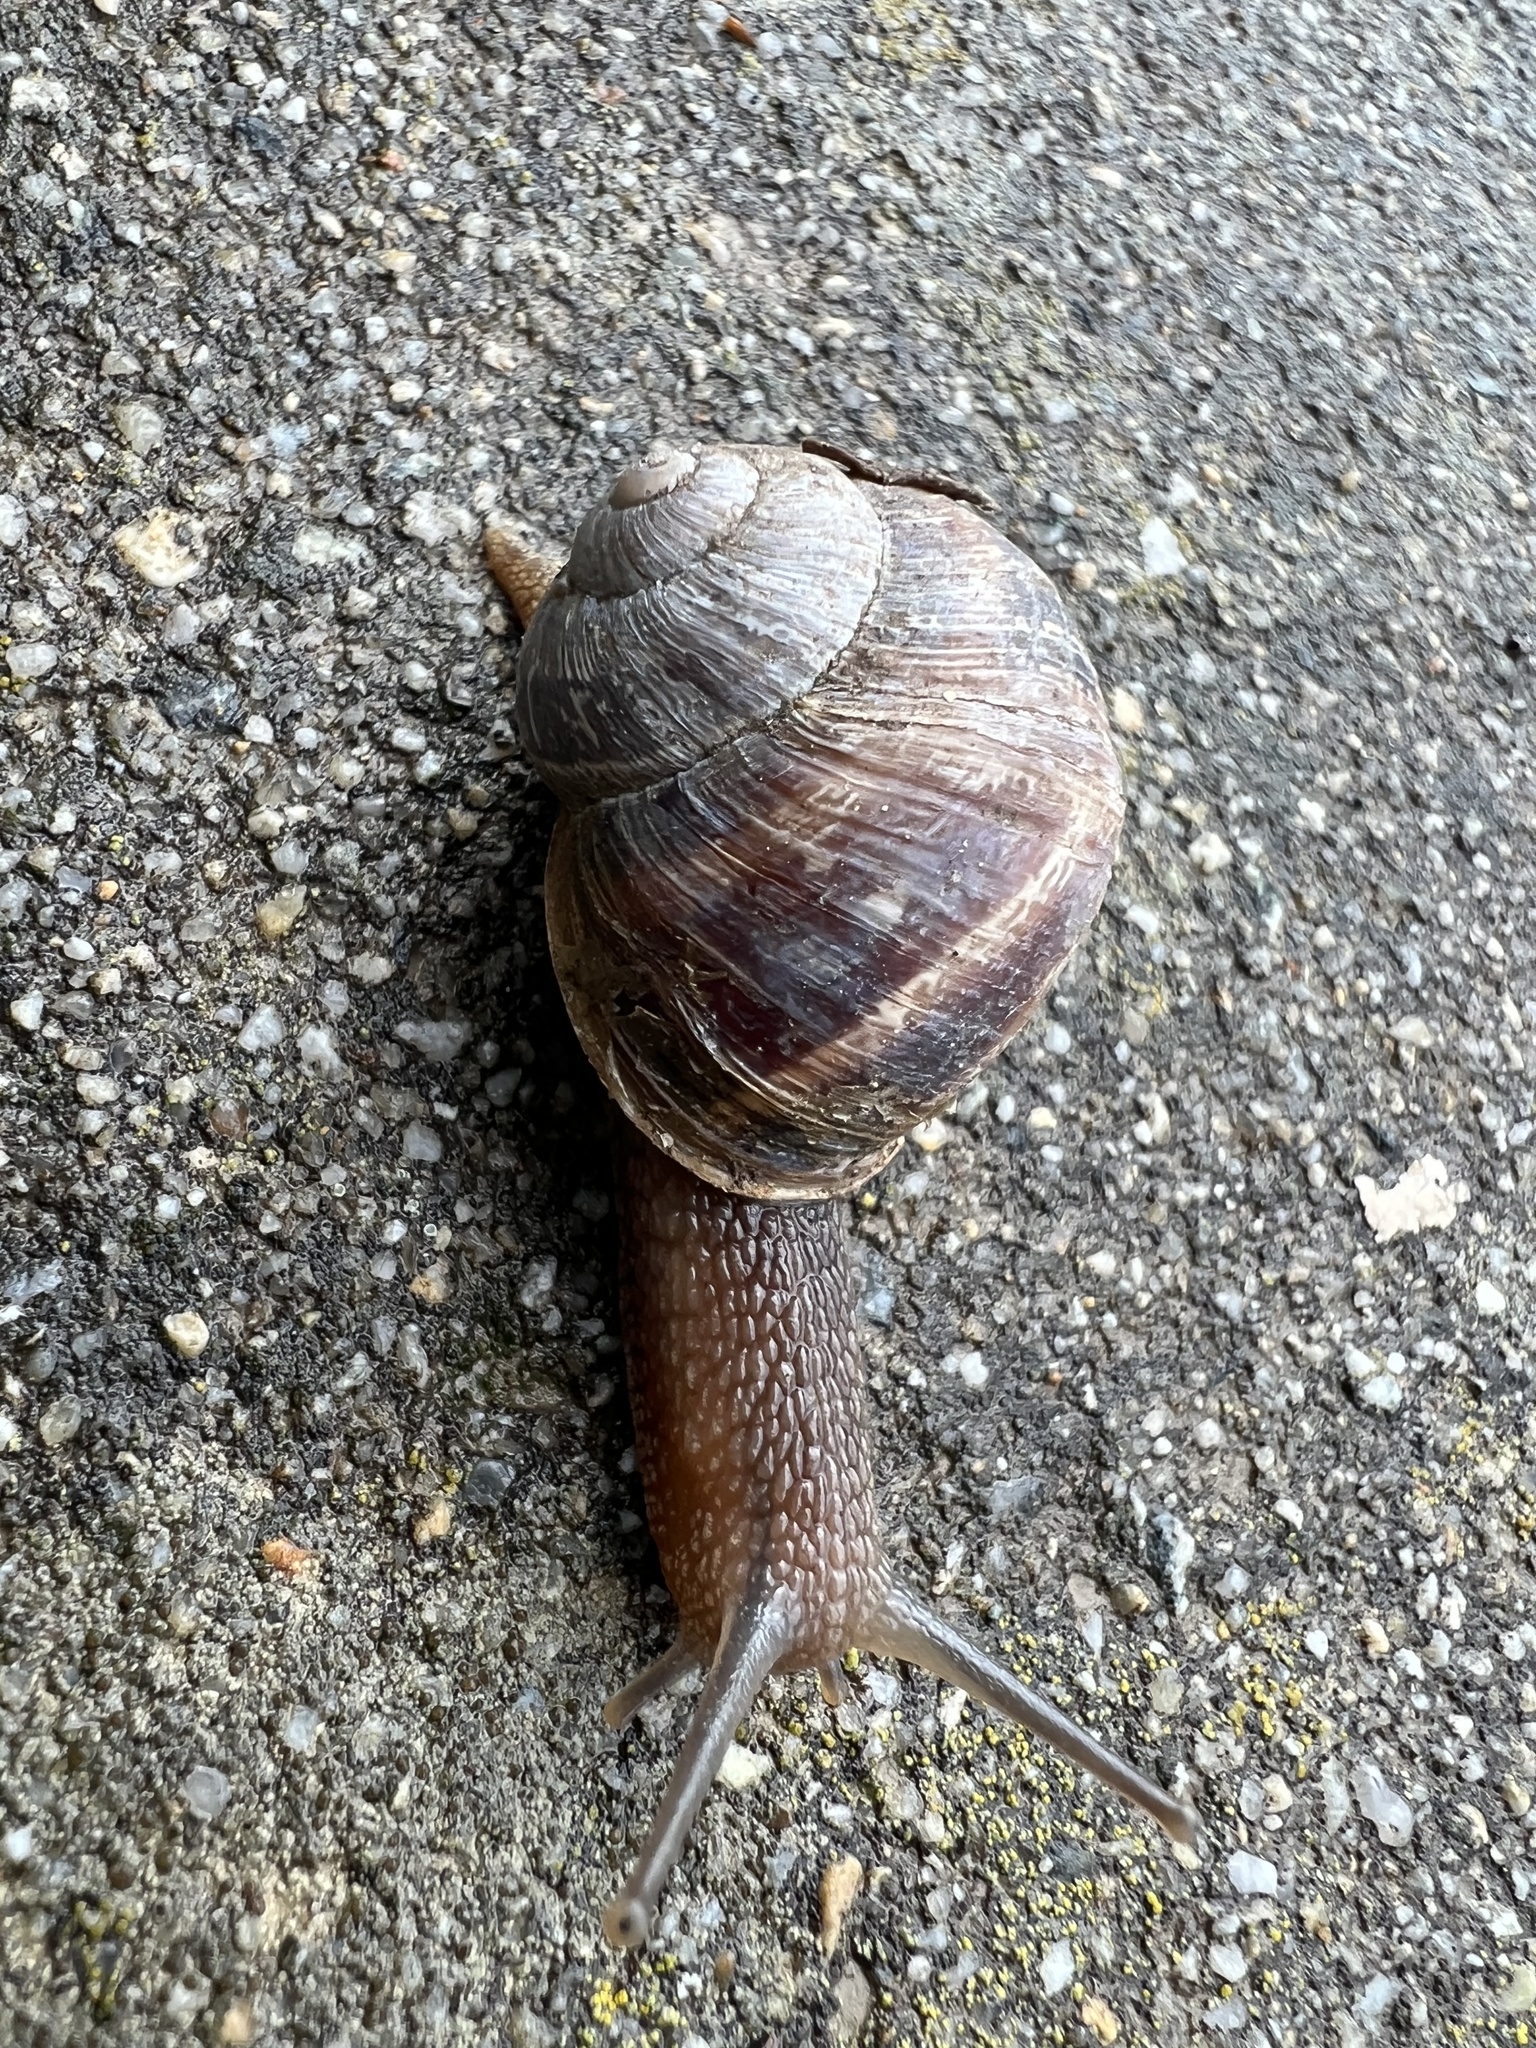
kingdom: Animalia
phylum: Mollusca
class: Gastropoda
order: Stylommatophora
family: Helicidae
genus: Cornu
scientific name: Cornu aspersum
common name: Brown garden snail
